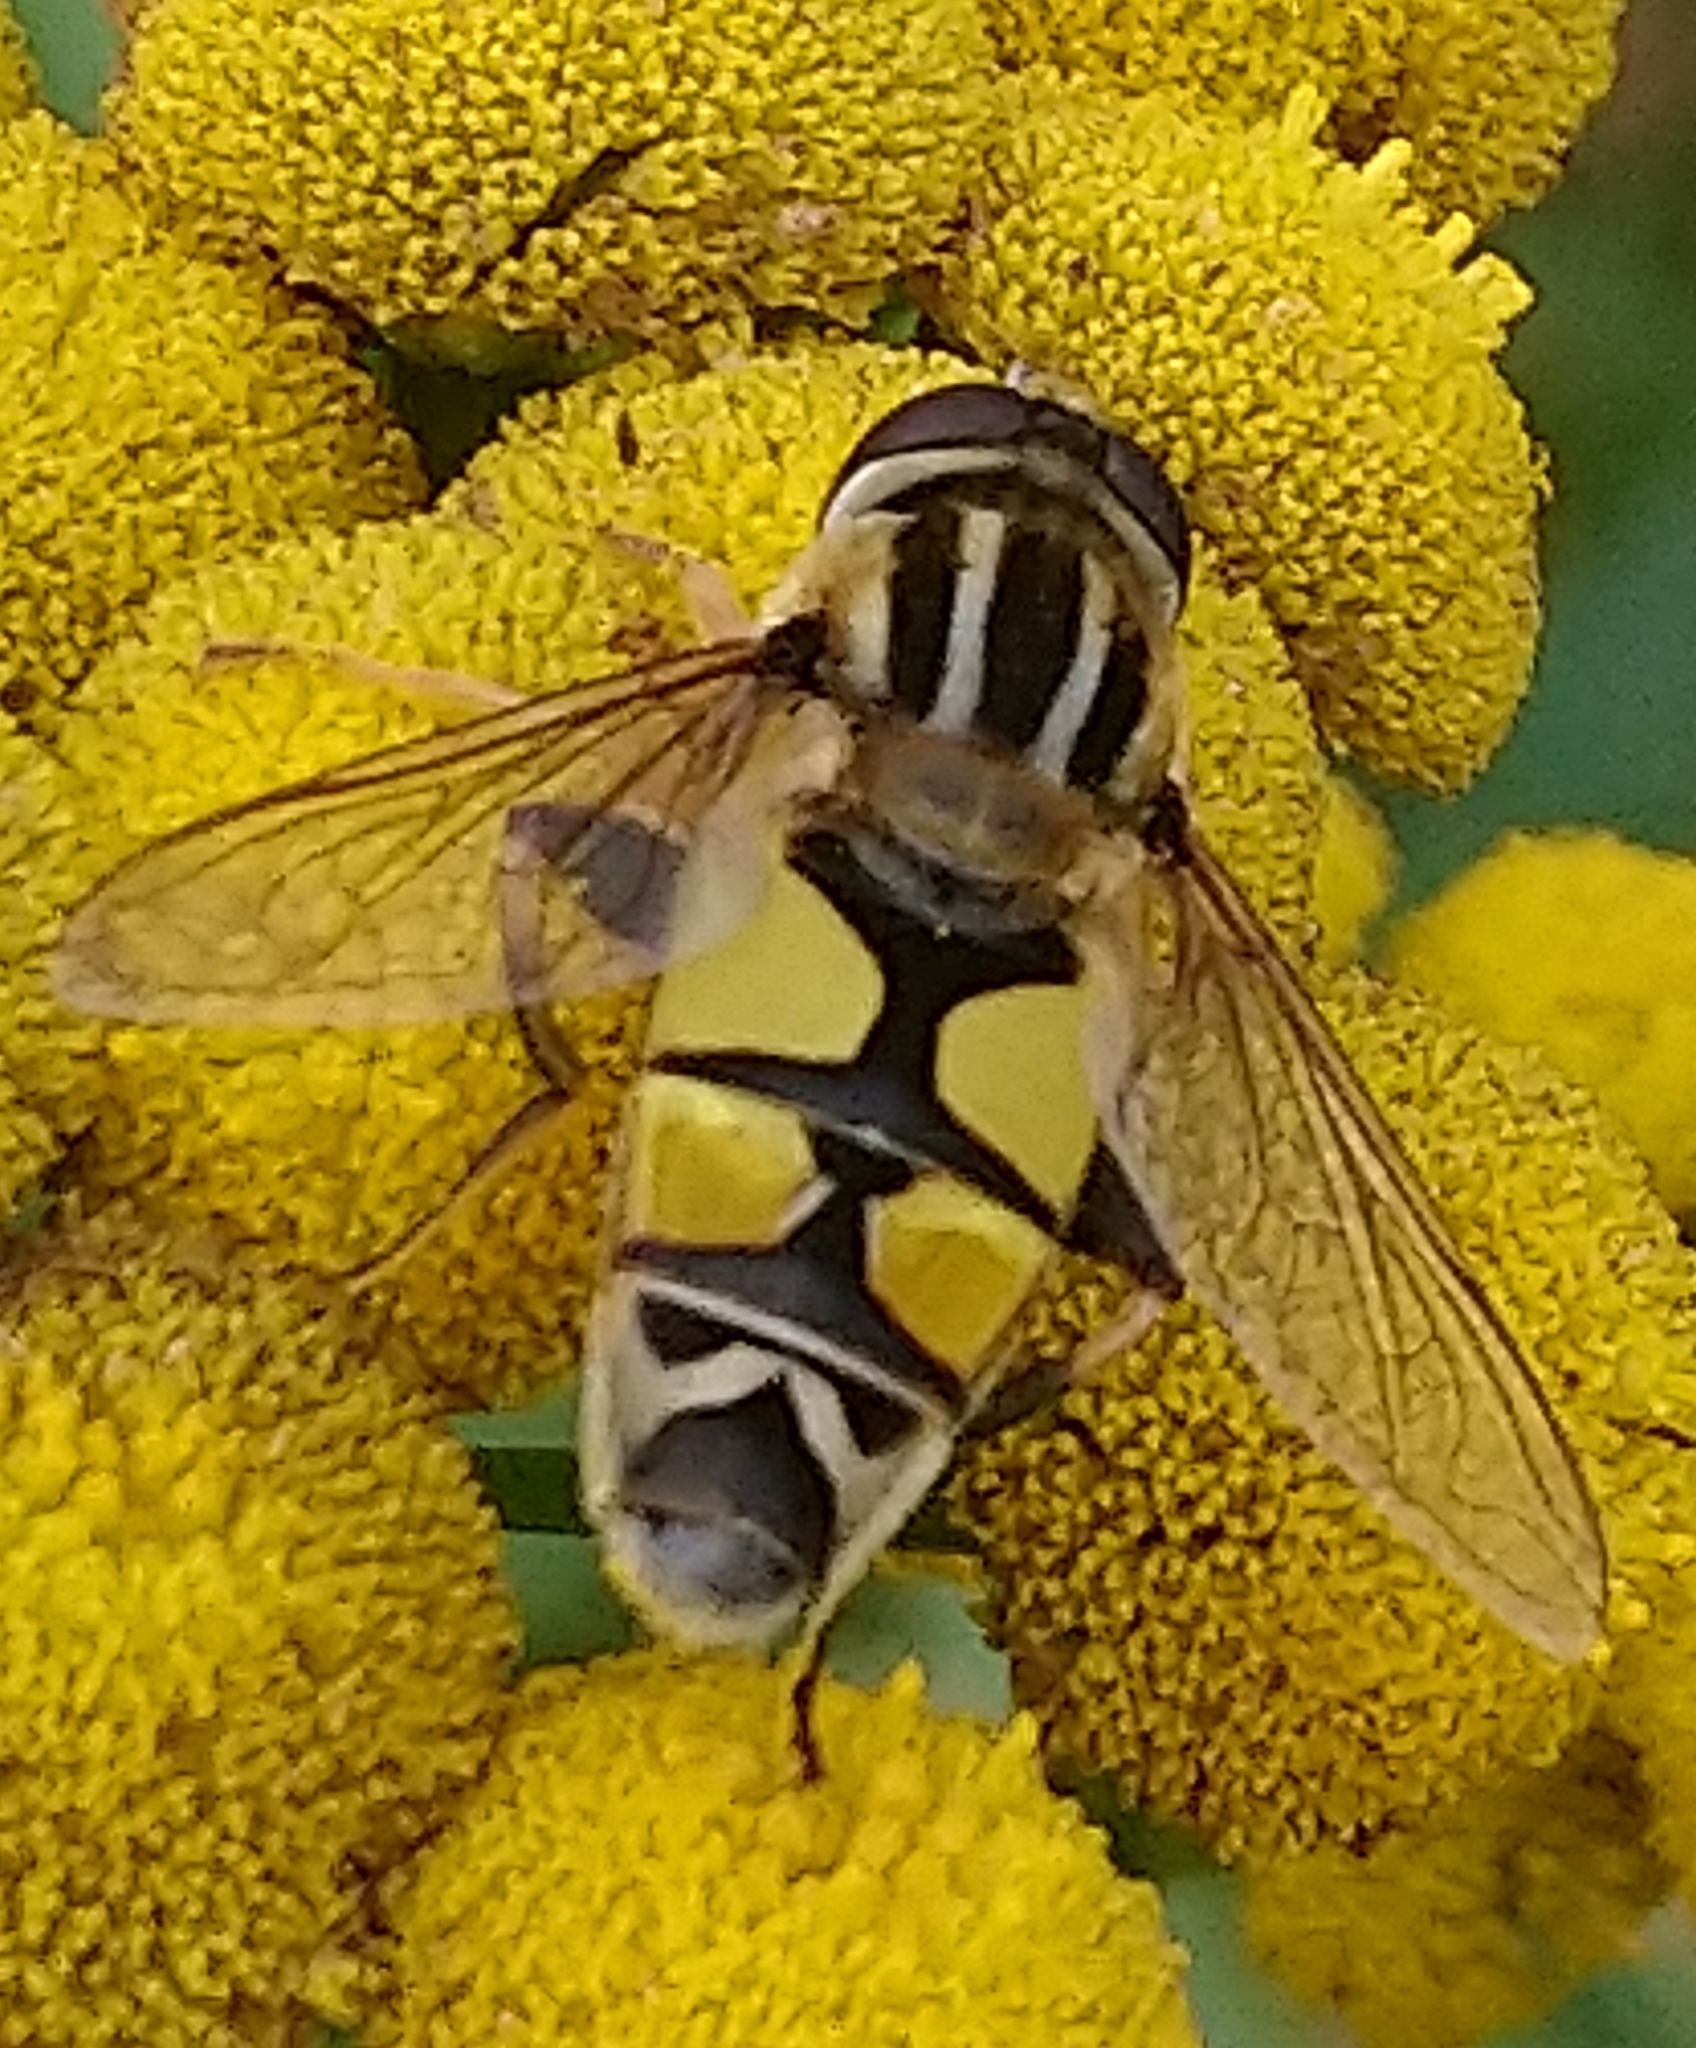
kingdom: Animalia
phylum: Arthropoda
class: Insecta
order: Diptera
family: Syrphidae
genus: Helophilus
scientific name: Helophilus trivittatus
